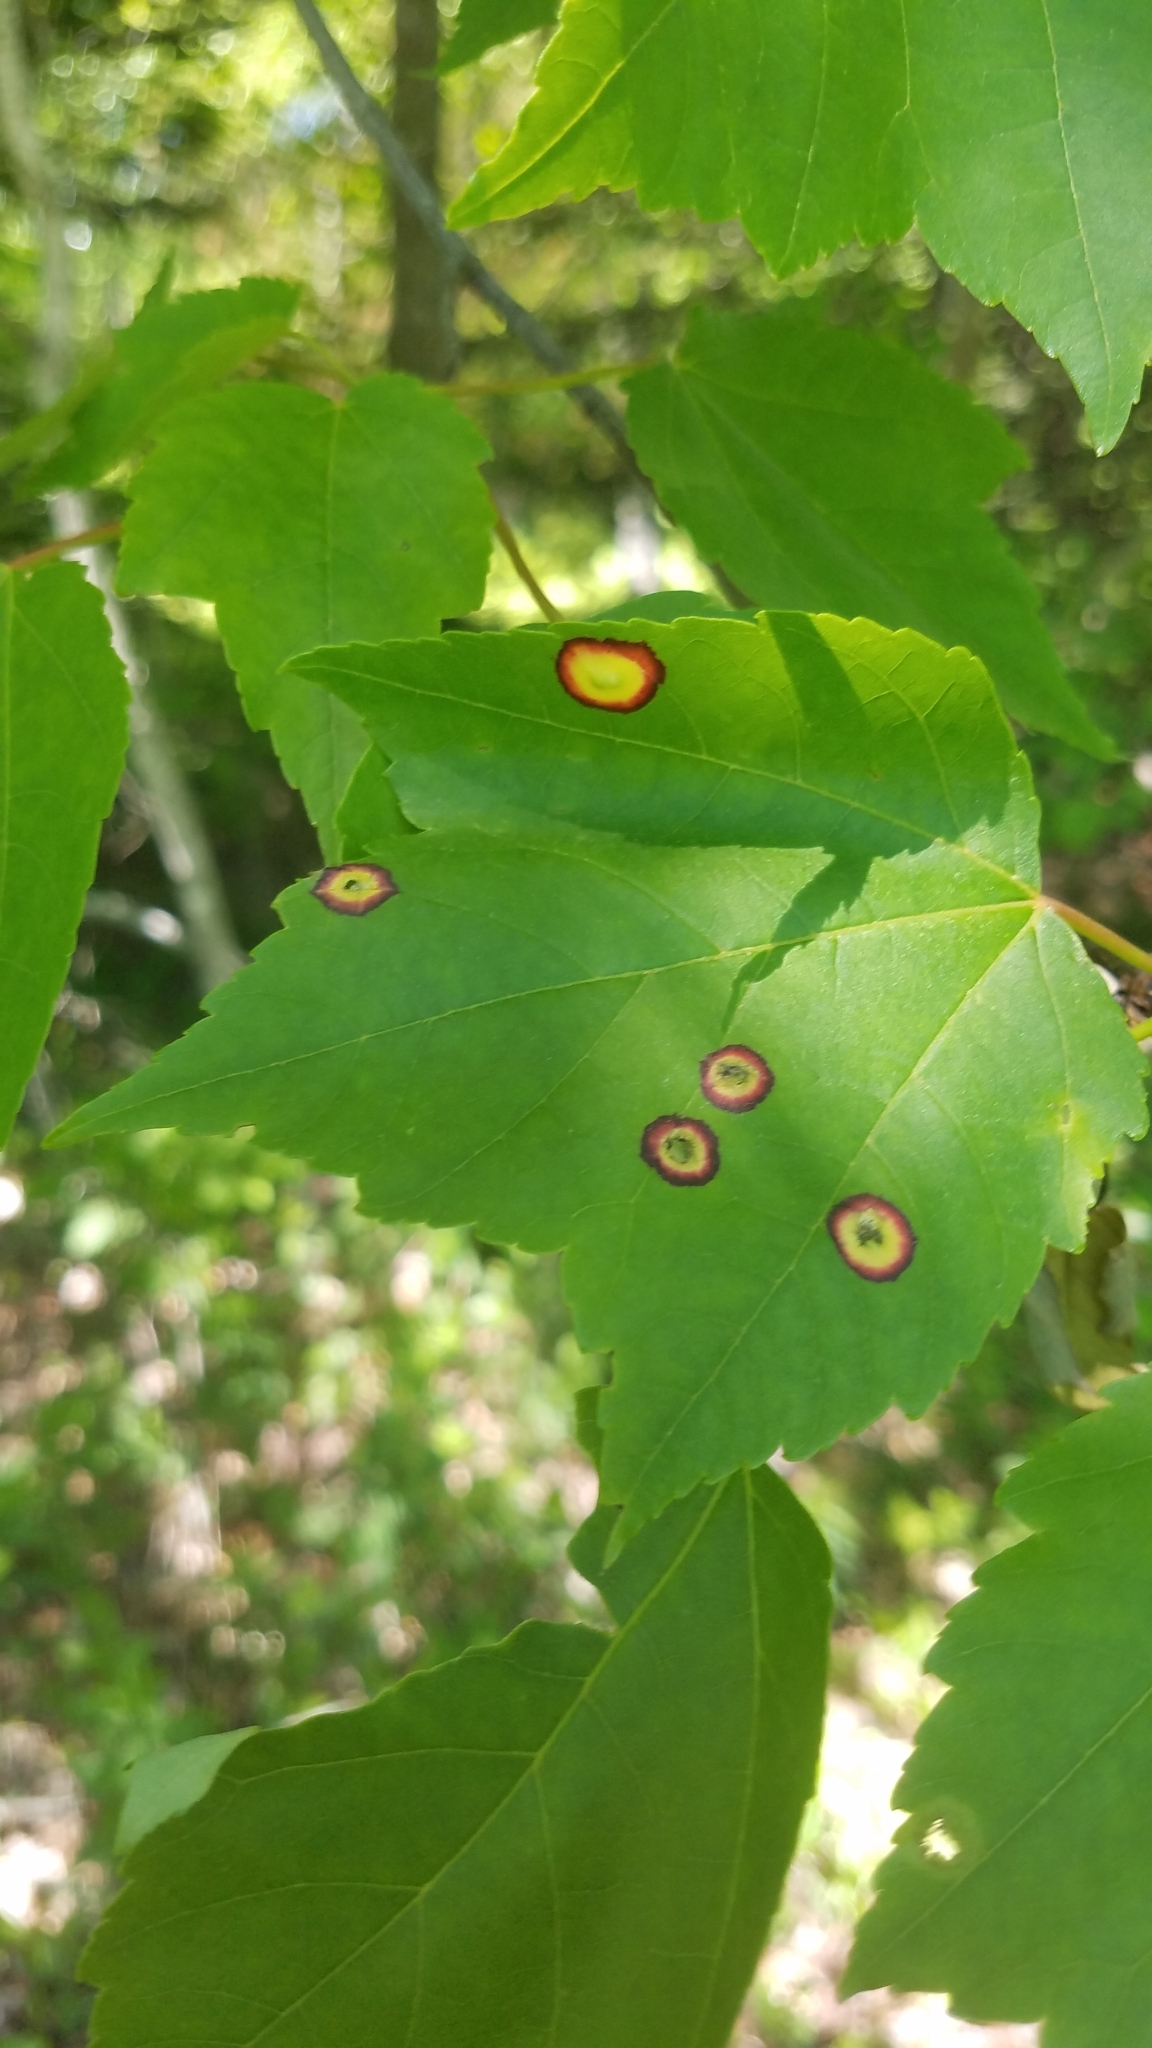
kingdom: Animalia
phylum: Arthropoda
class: Insecta
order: Diptera
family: Cecidomyiidae
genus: Acericecis
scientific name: Acericecis ocellaris
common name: Ocellate gall midge
